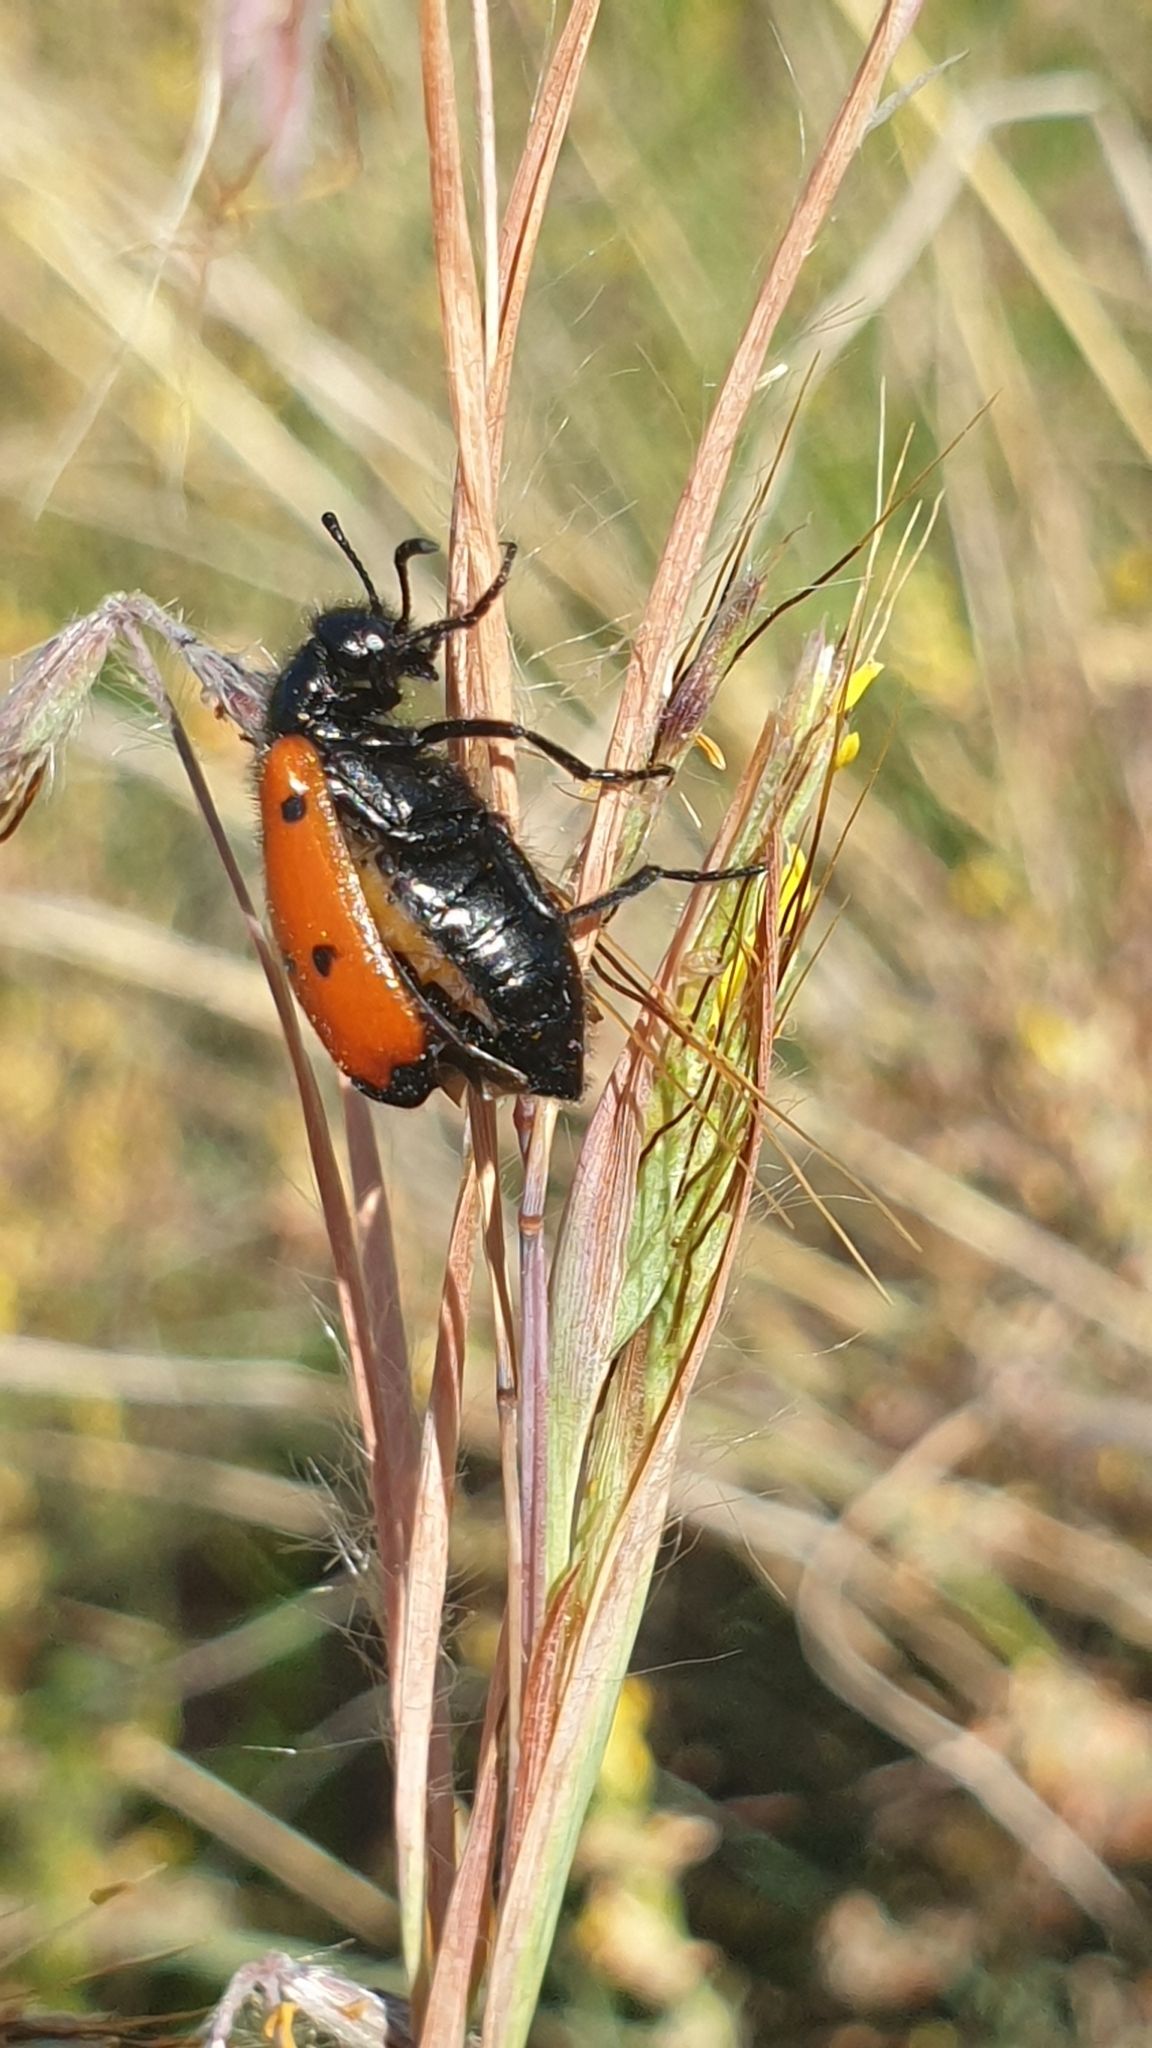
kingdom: Animalia
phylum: Arthropoda
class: Insecta
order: Coleoptera
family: Meloidae
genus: Mylabris
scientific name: Mylabris quadripunctata
